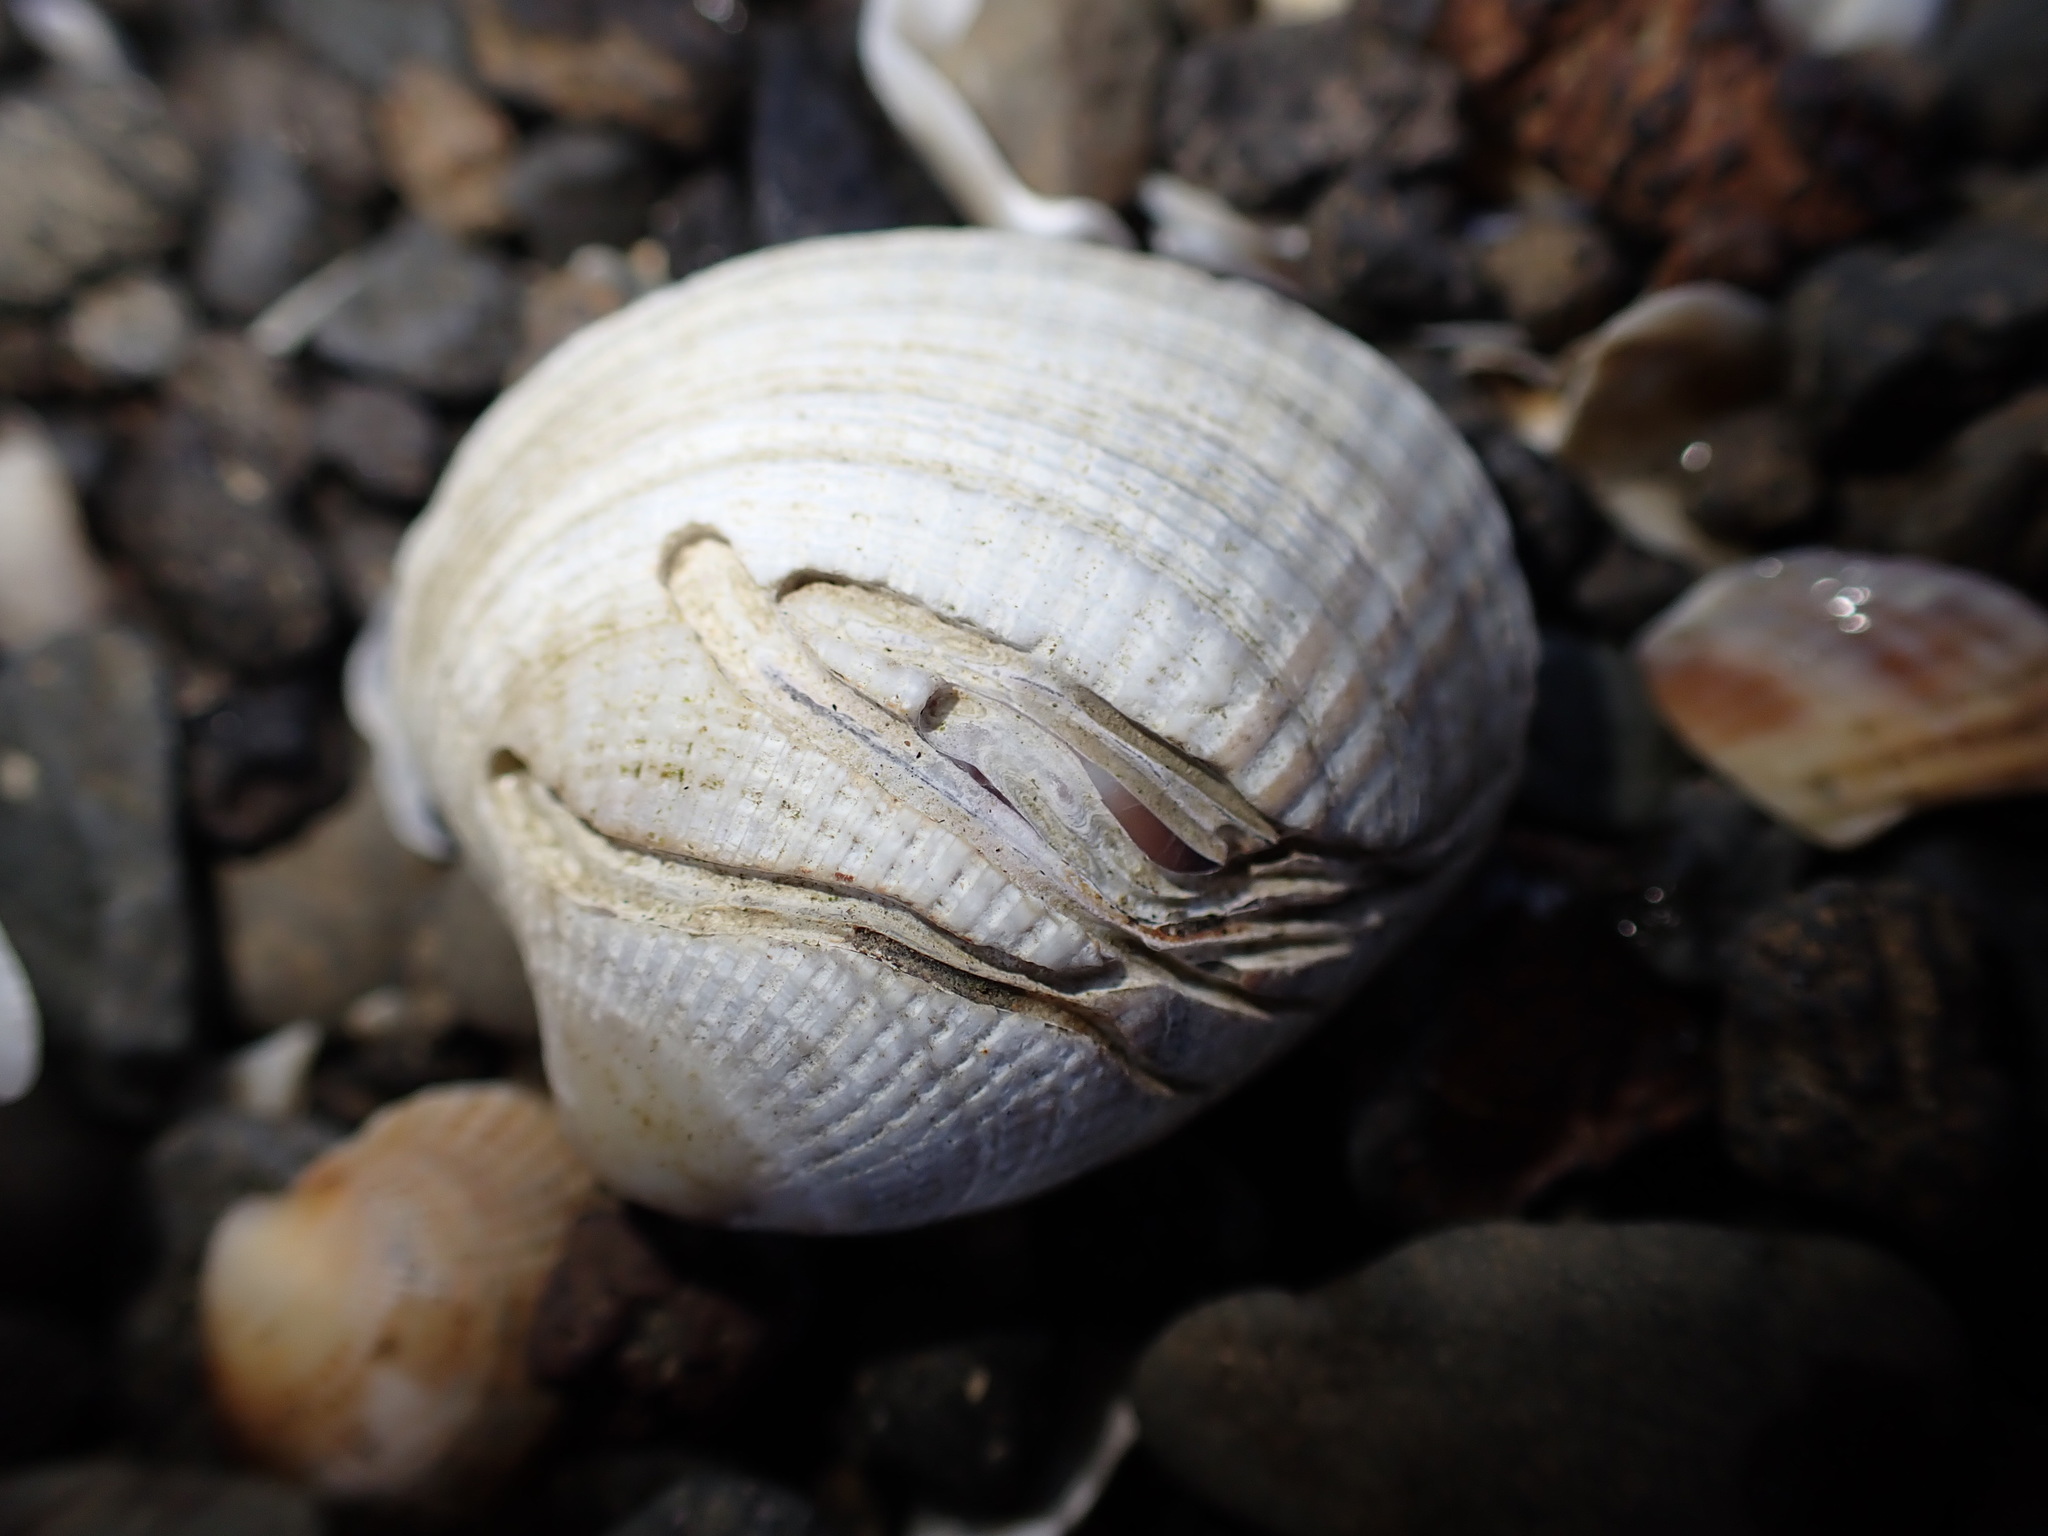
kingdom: Animalia
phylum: Annelida
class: Polychaeta
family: Spionidae
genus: Boccardia
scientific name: Boccardia acus
